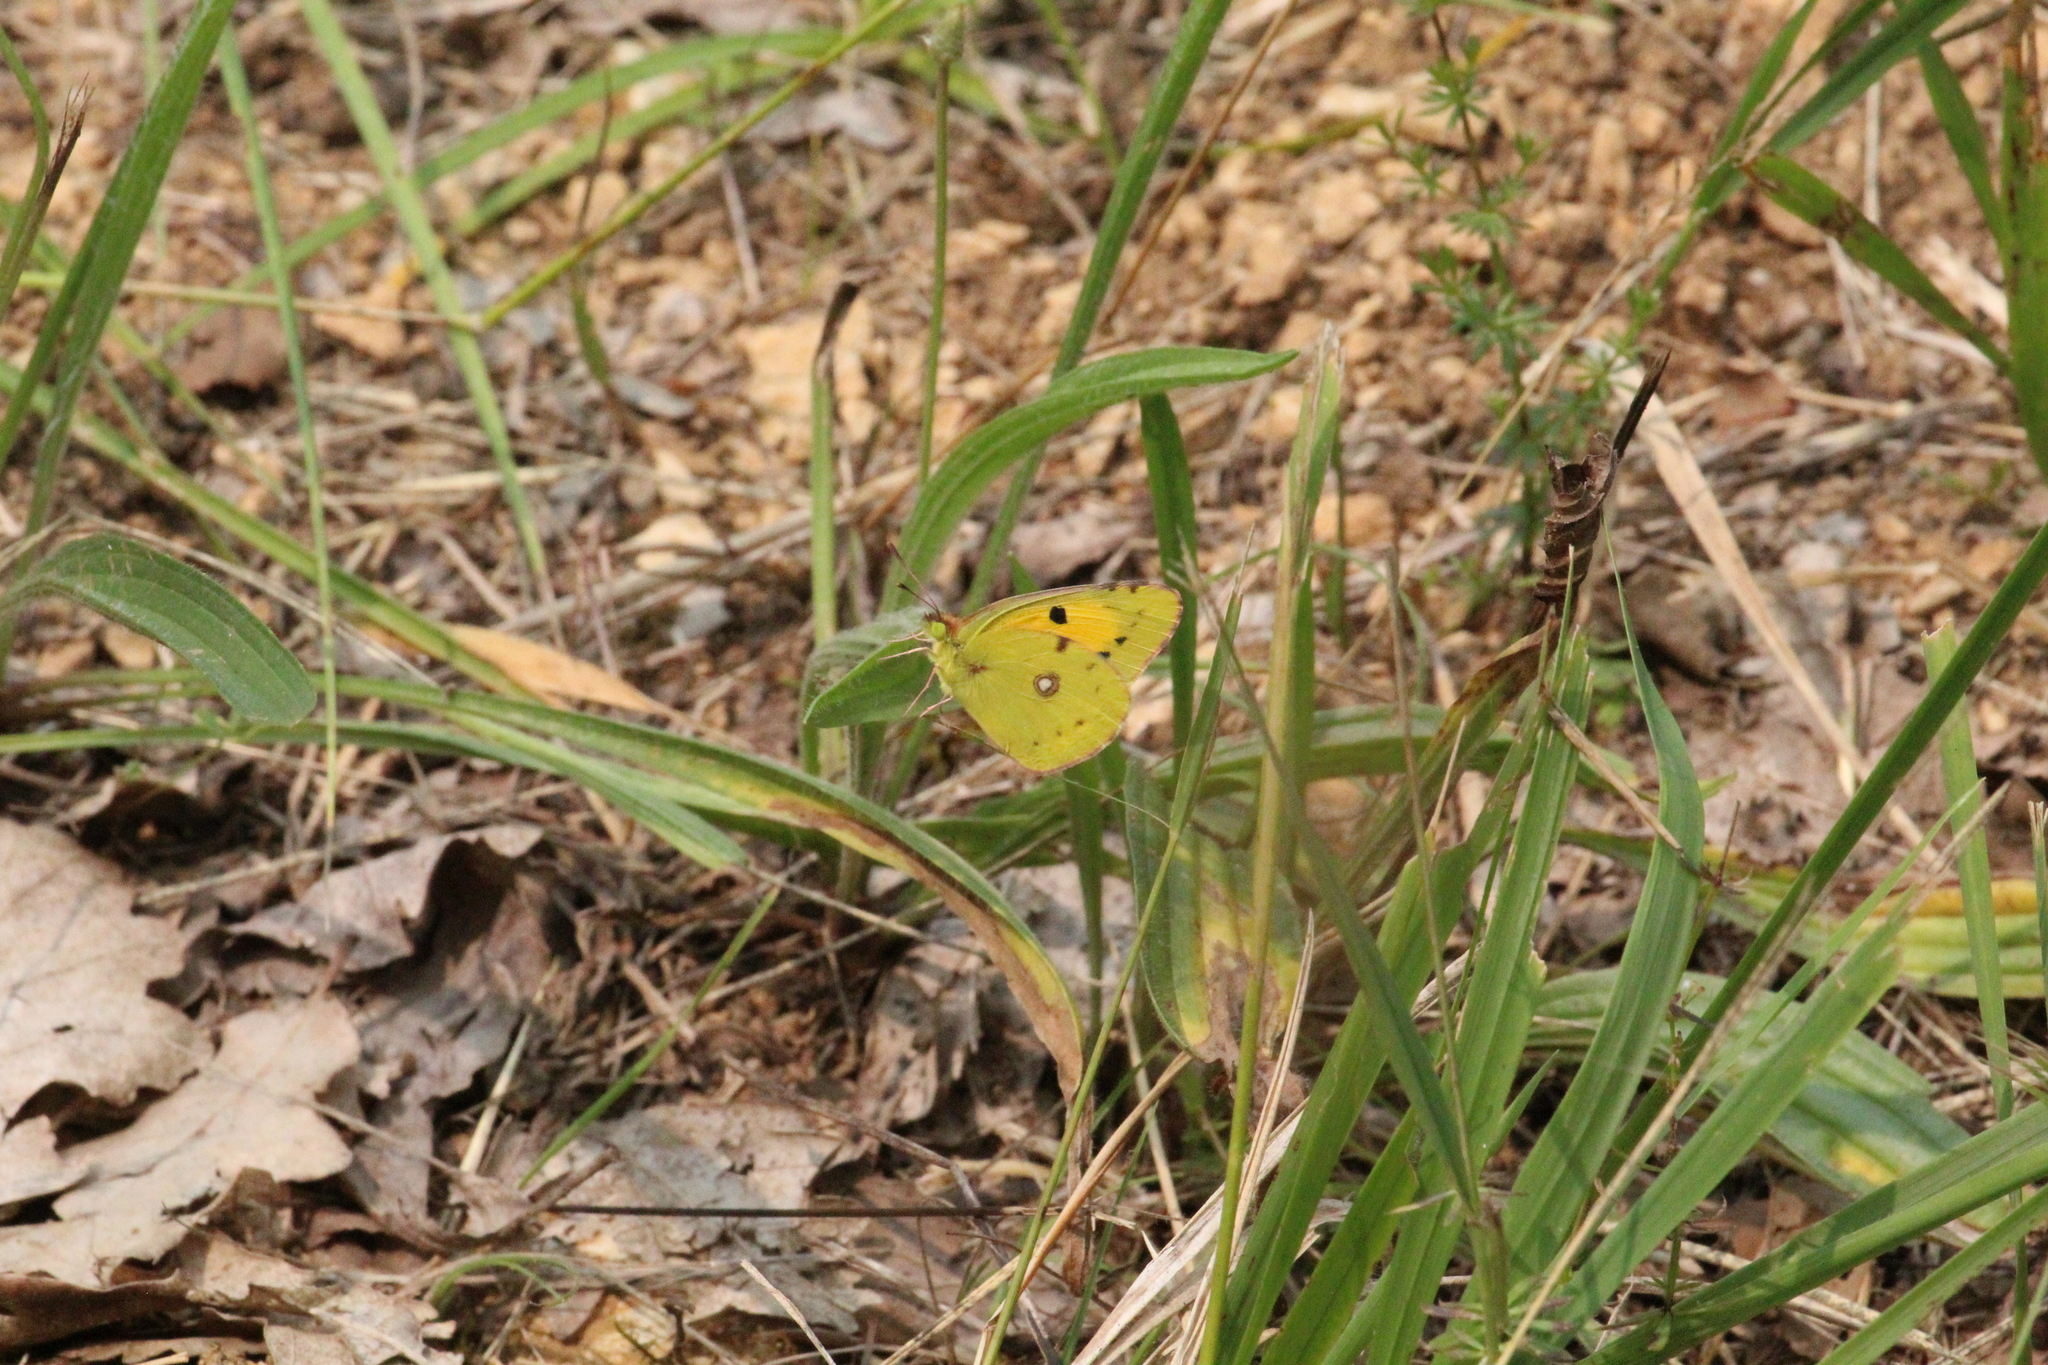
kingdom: Animalia
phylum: Arthropoda
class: Insecta
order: Lepidoptera
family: Pieridae
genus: Colias
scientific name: Colias croceus
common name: Clouded yellow
